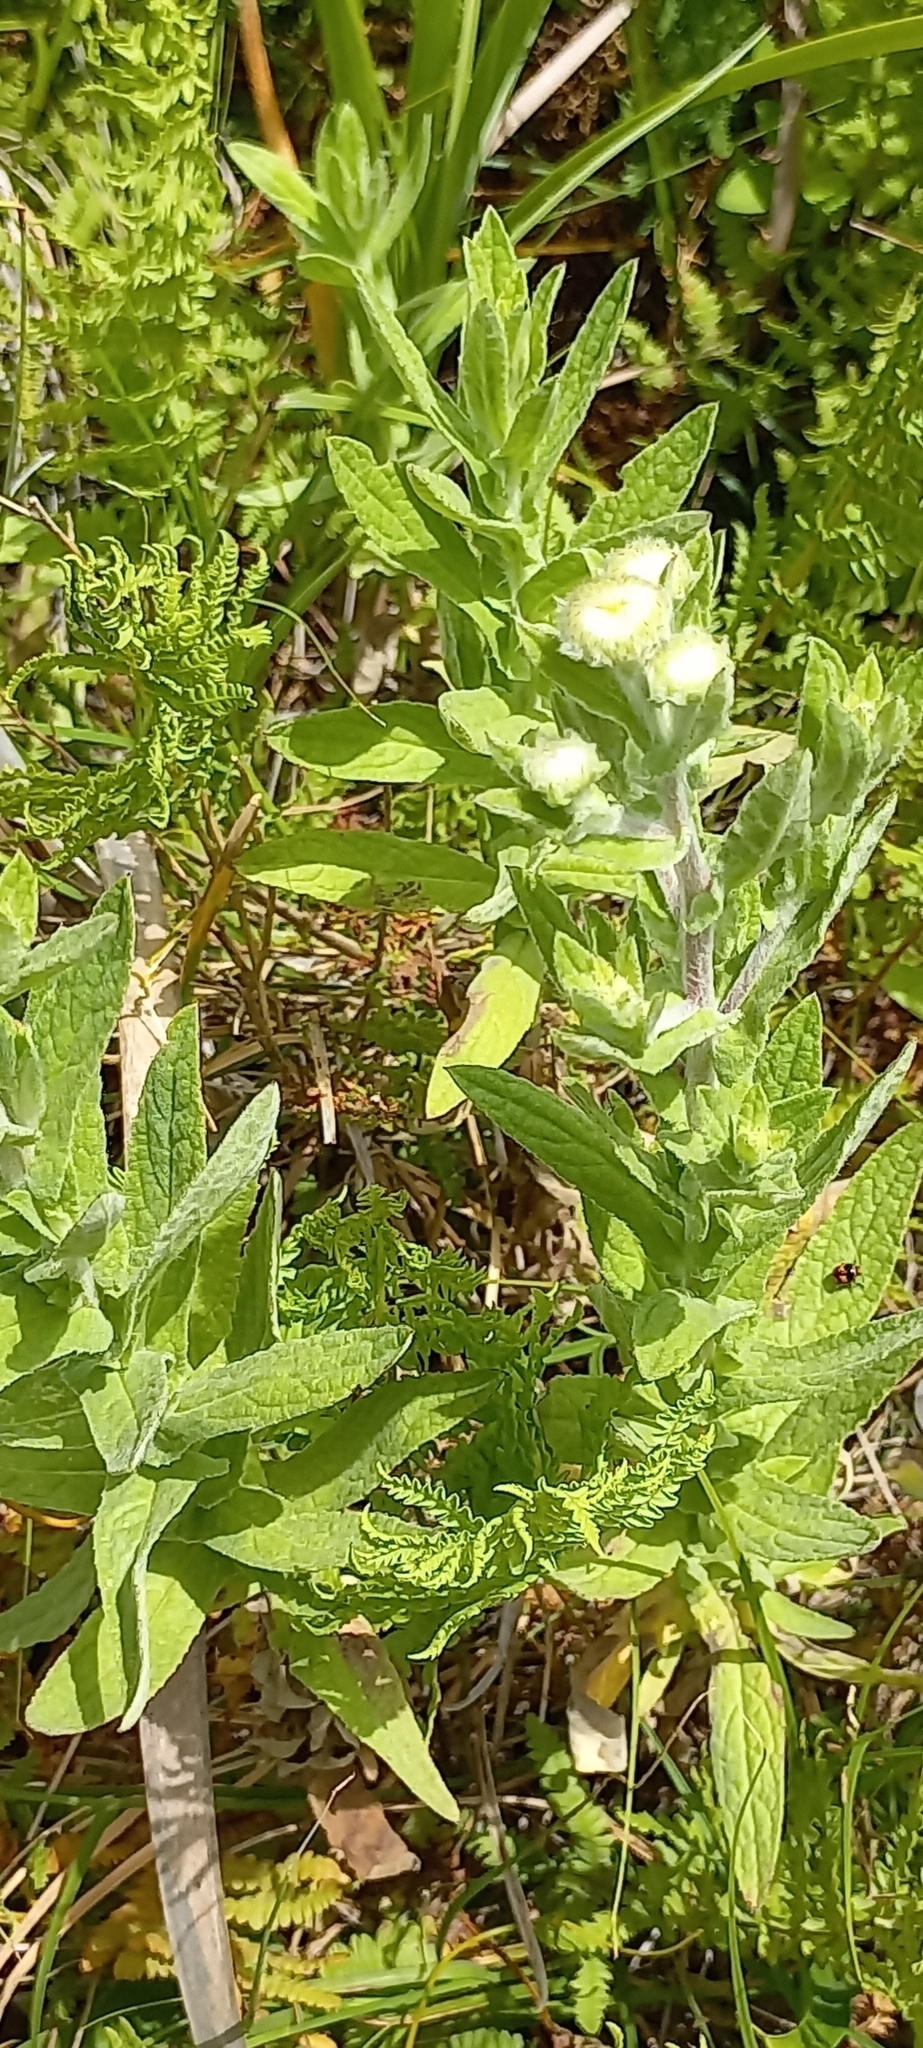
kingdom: Plantae
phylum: Tracheophyta
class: Magnoliopsida
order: Asterales
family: Asteraceae
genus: Helichrysum
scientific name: Helichrysum foetidum
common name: Stinking everlasting
